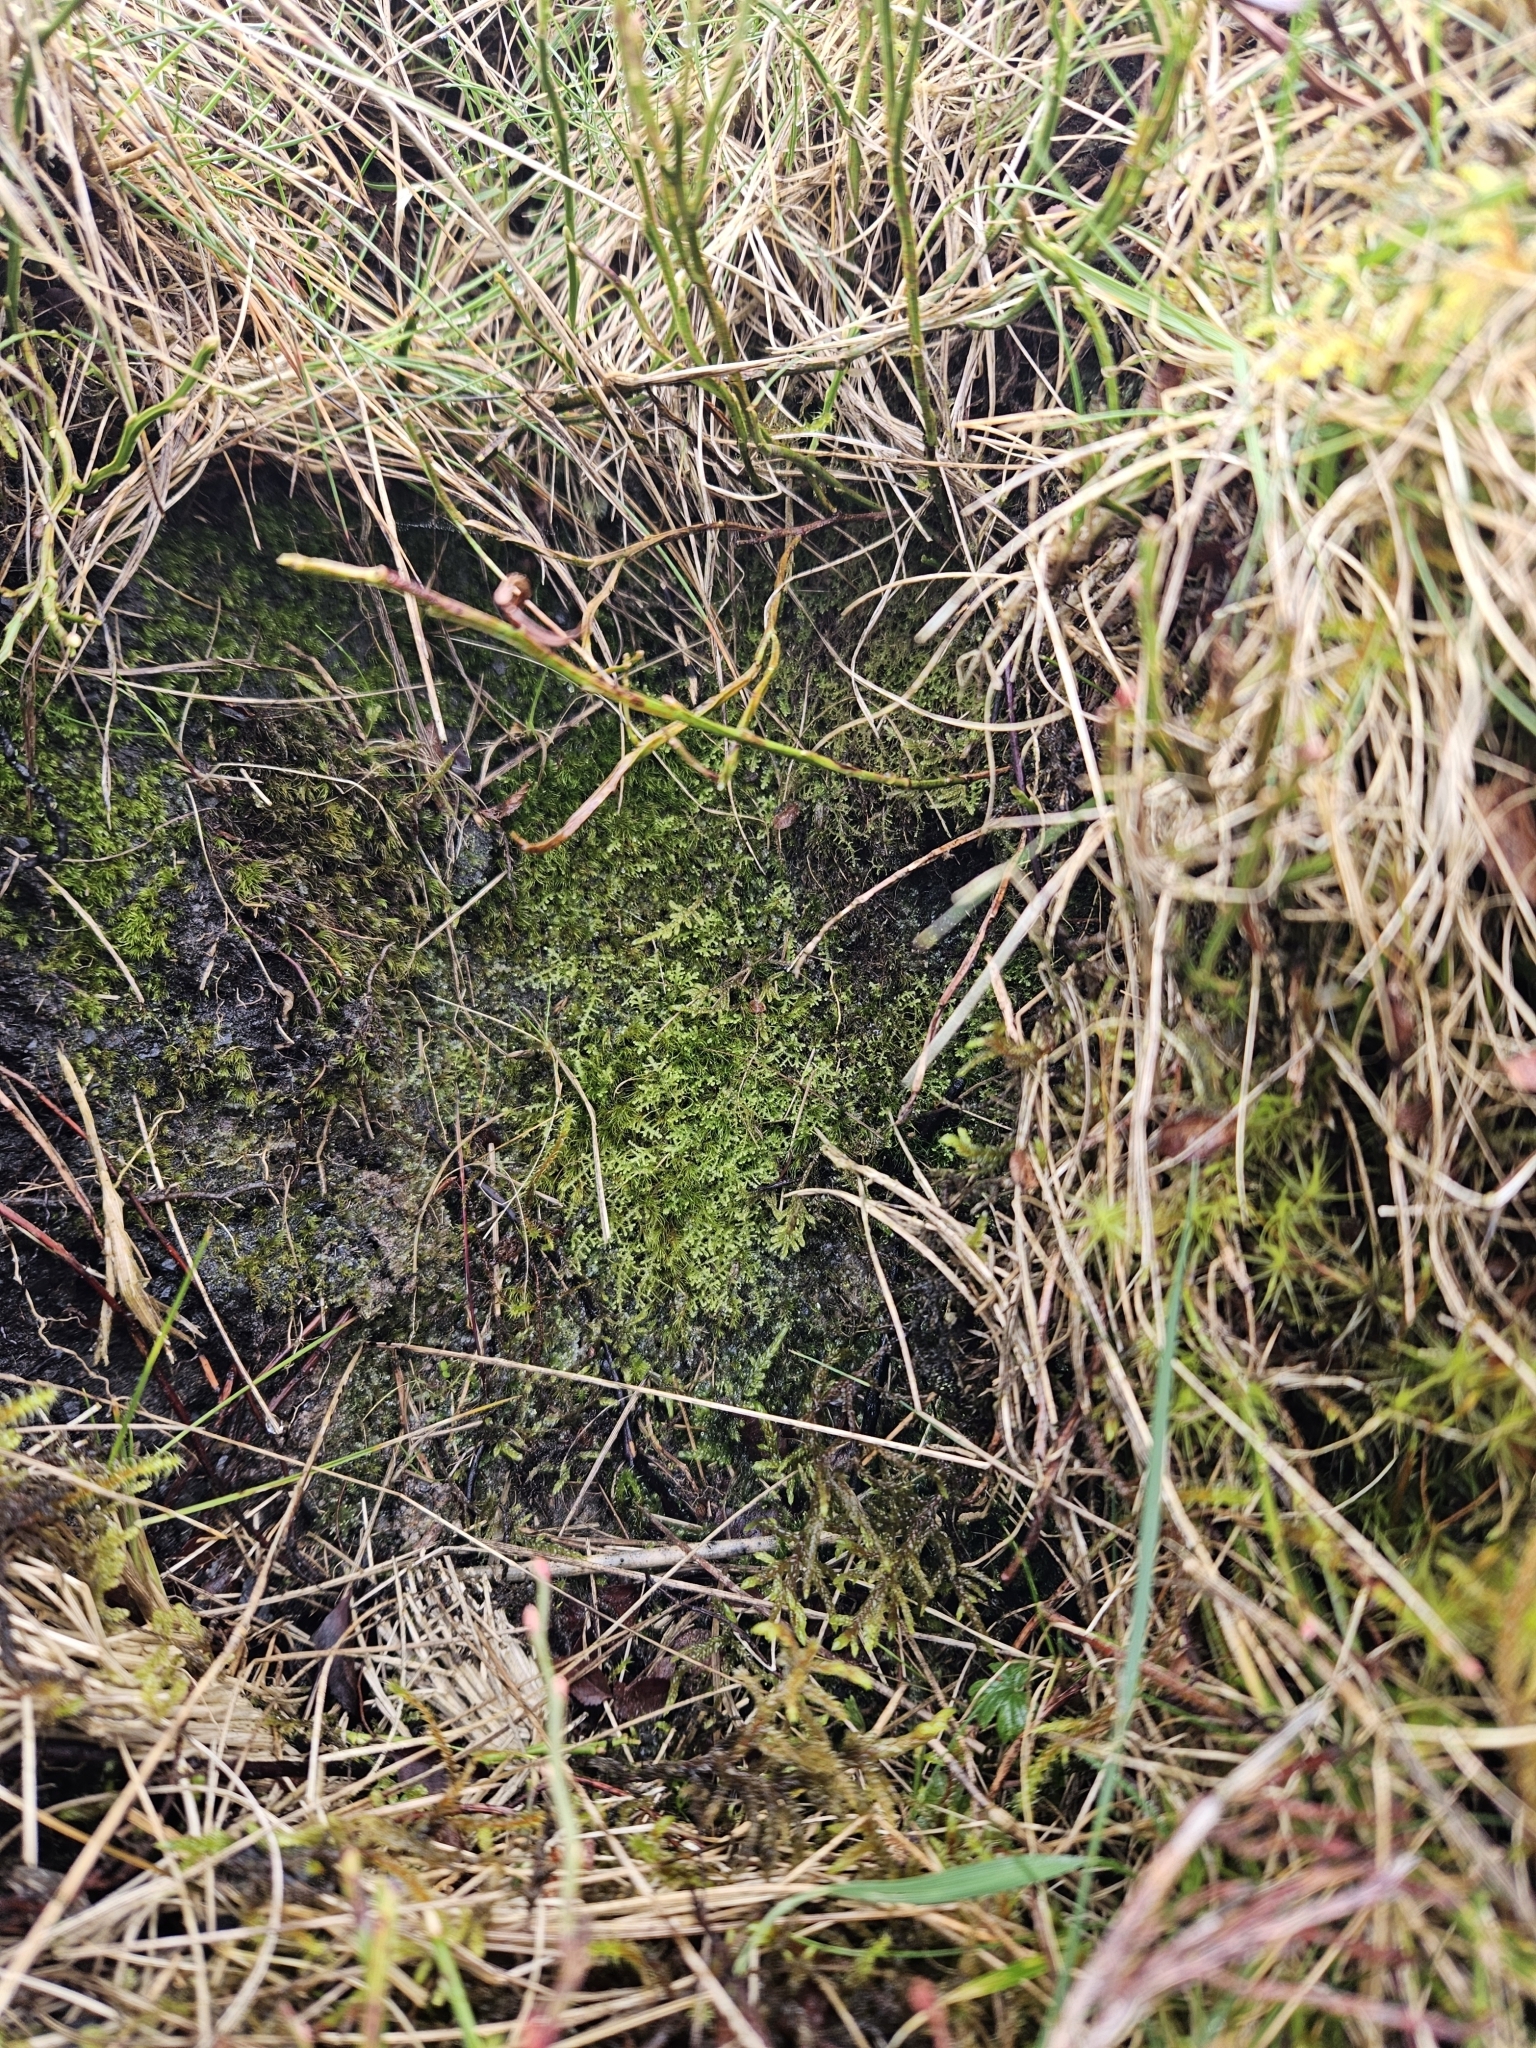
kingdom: Plantae
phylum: Marchantiophyta
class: Jungermanniopsida
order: Jungermanniales
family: Lepidoziaceae
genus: Lepidozia
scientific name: Lepidozia reptans
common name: Creeping fingerwort
